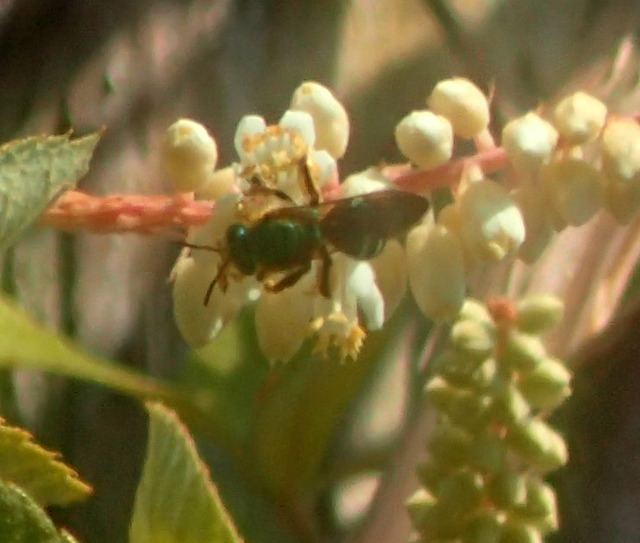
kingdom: Animalia
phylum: Arthropoda
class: Insecta
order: Hymenoptera
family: Halictidae
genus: Agapostemon
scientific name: Agapostemon splendens
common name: Brown-winged striped sweat bee
